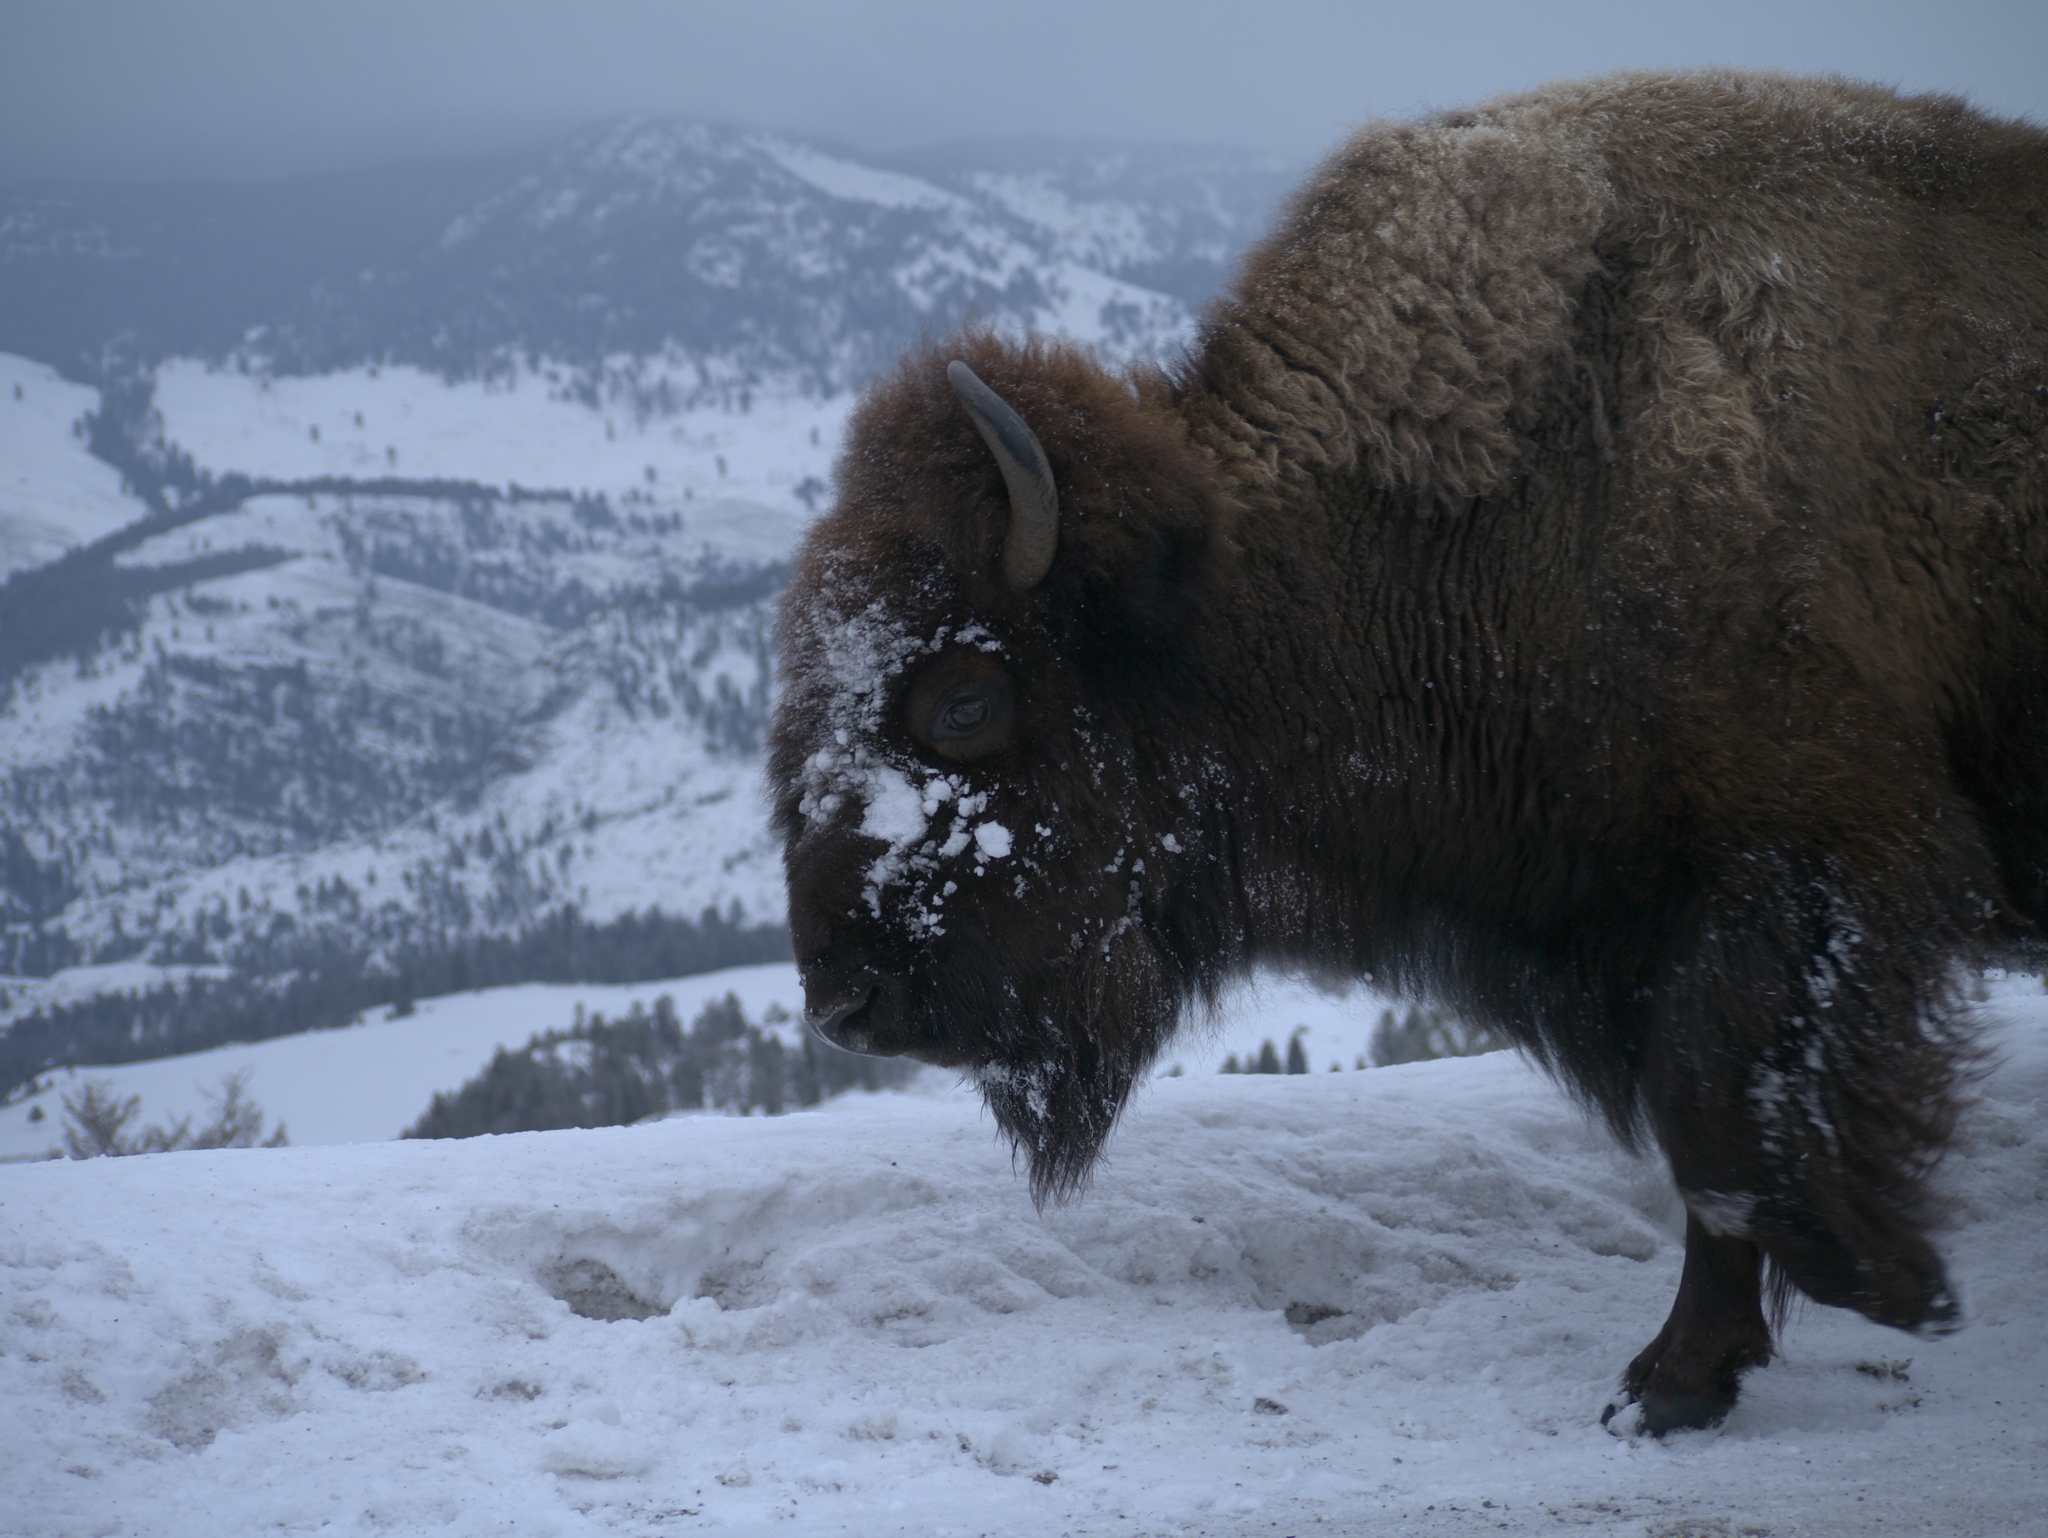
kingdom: Animalia
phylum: Chordata
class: Mammalia
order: Artiodactyla
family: Bovidae
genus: Bison
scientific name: Bison bison
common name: American bison
